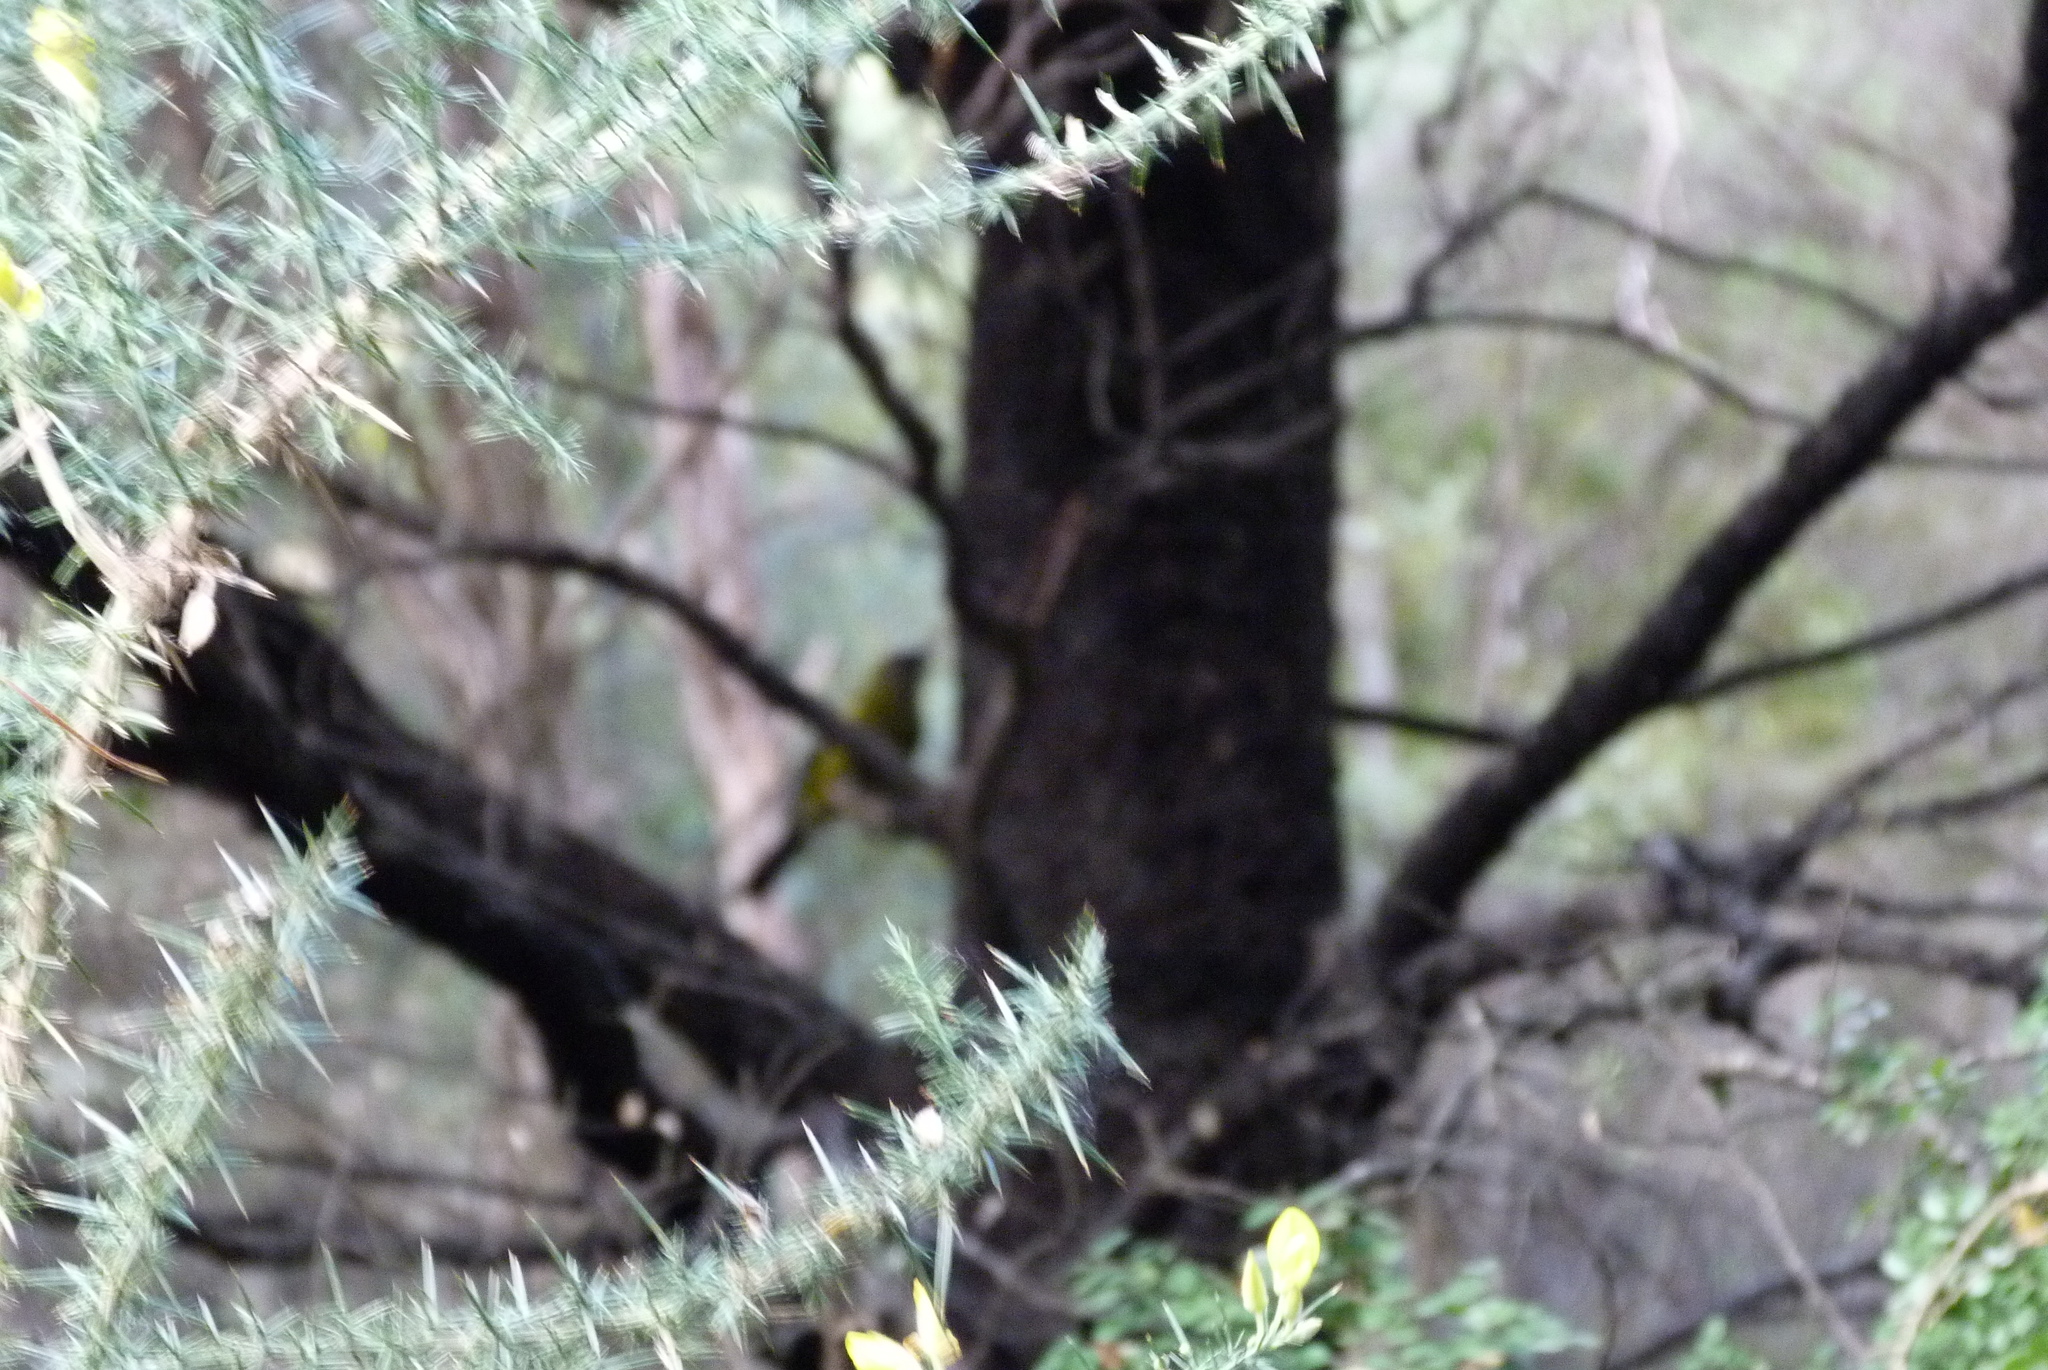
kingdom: Animalia
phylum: Chordata
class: Aves
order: Passeriformes
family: Meliphagidae
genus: Anthornis
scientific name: Anthornis melanura
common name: New zealand bellbird
